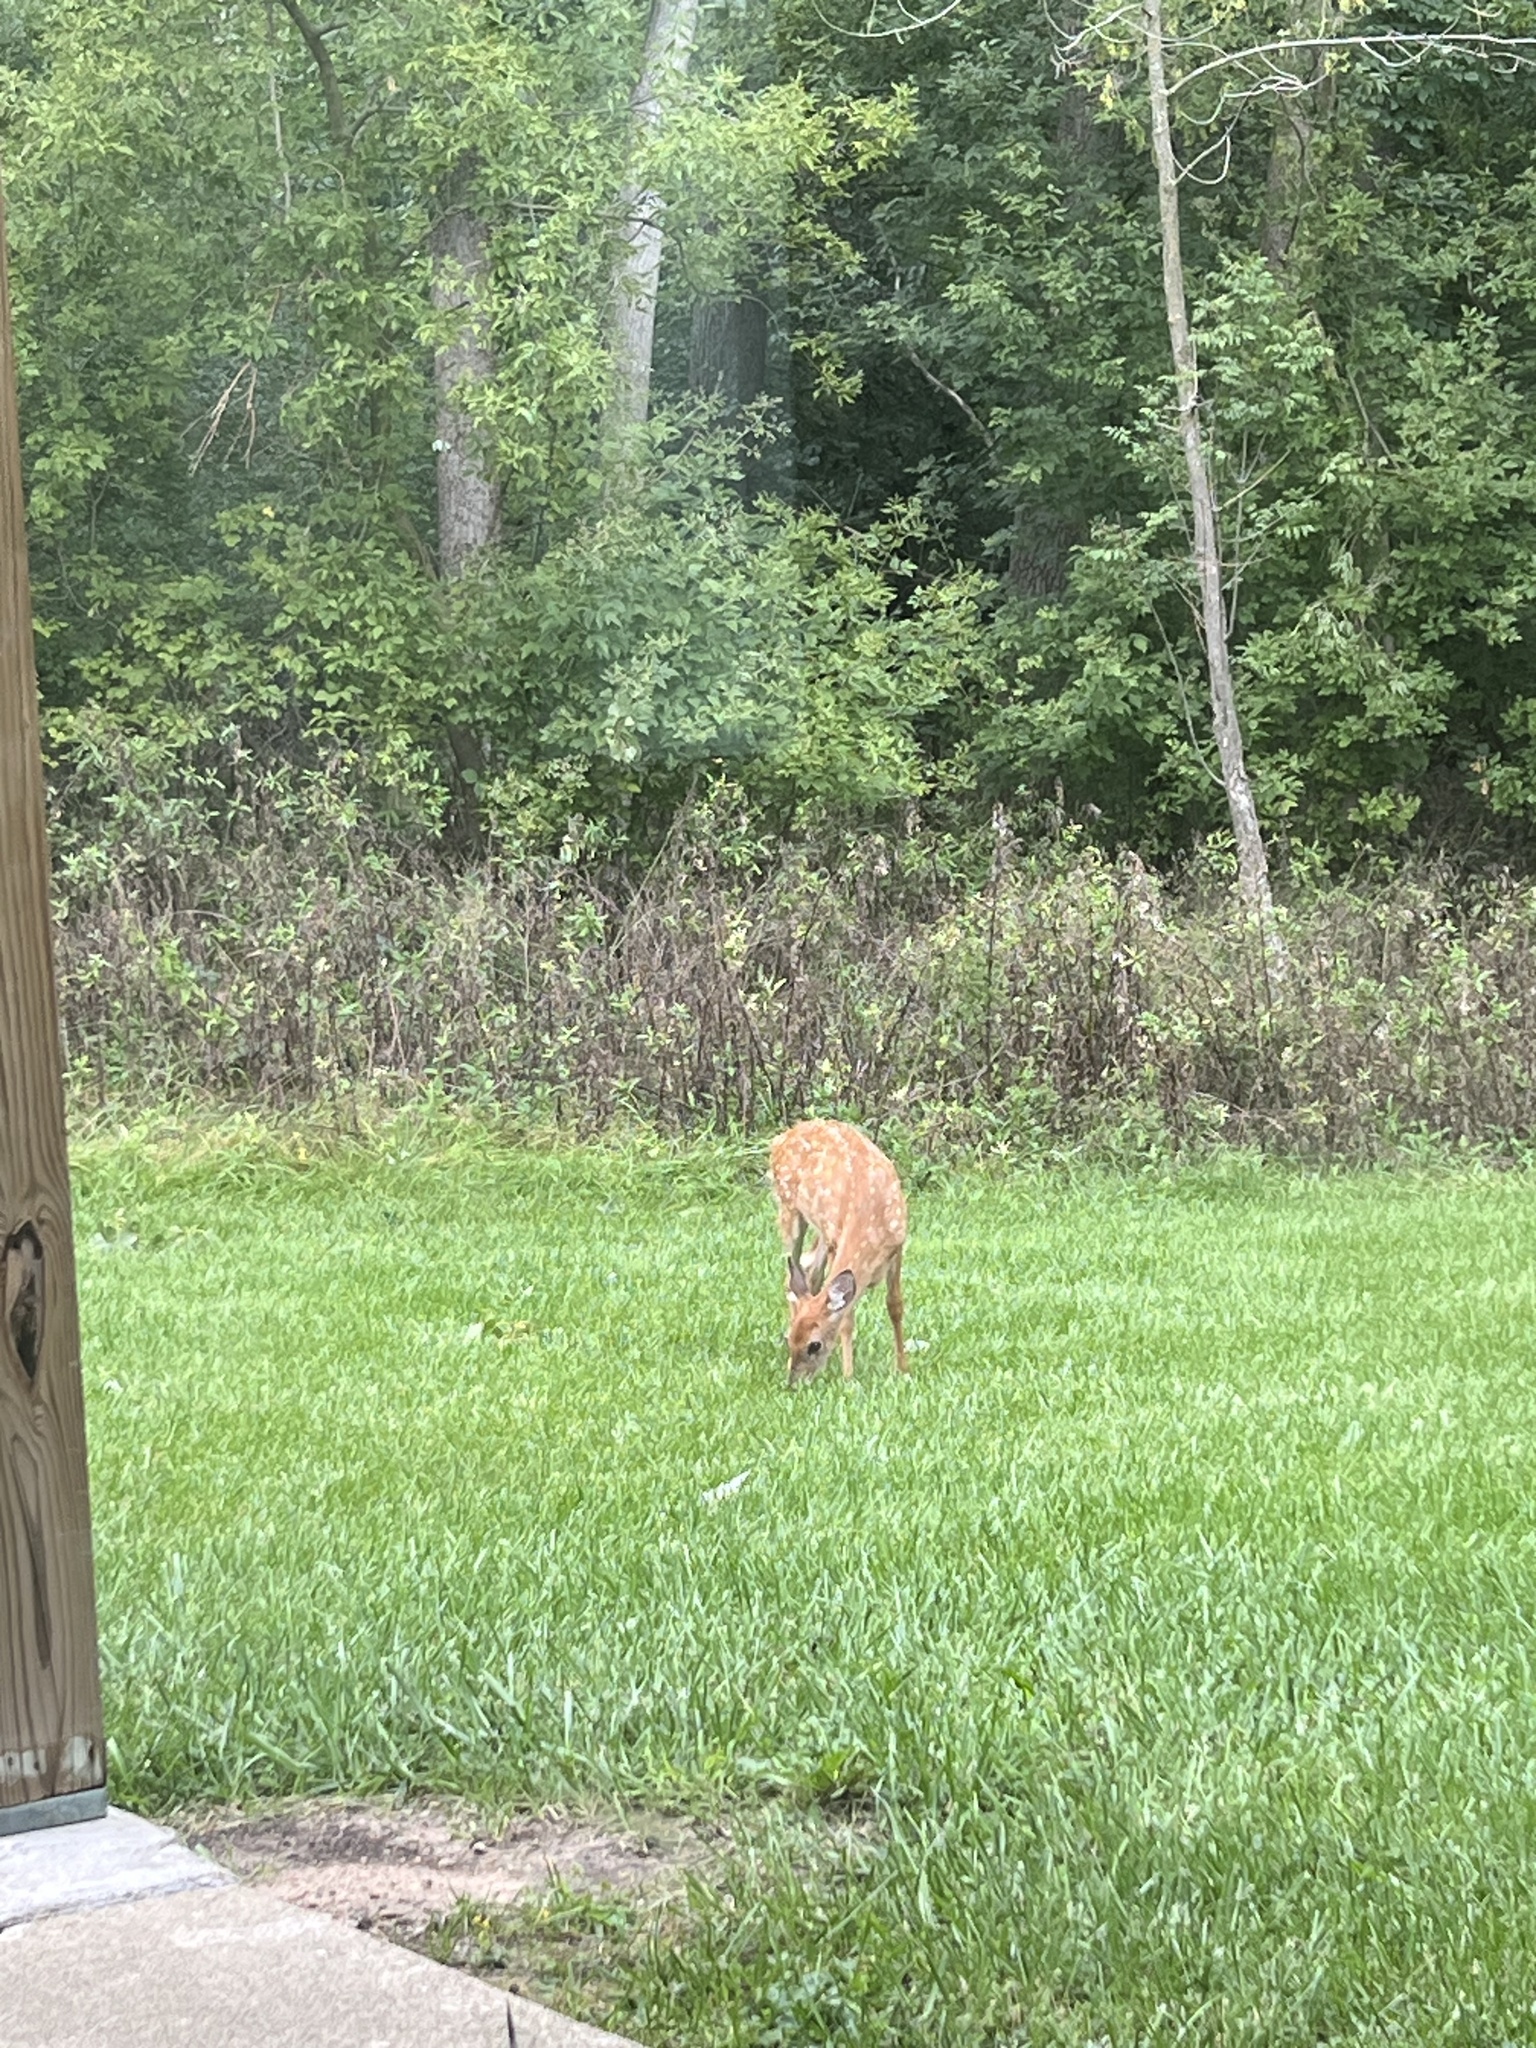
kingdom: Animalia
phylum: Chordata
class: Mammalia
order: Artiodactyla
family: Cervidae
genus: Odocoileus
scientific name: Odocoileus virginianus
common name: White-tailed deer
